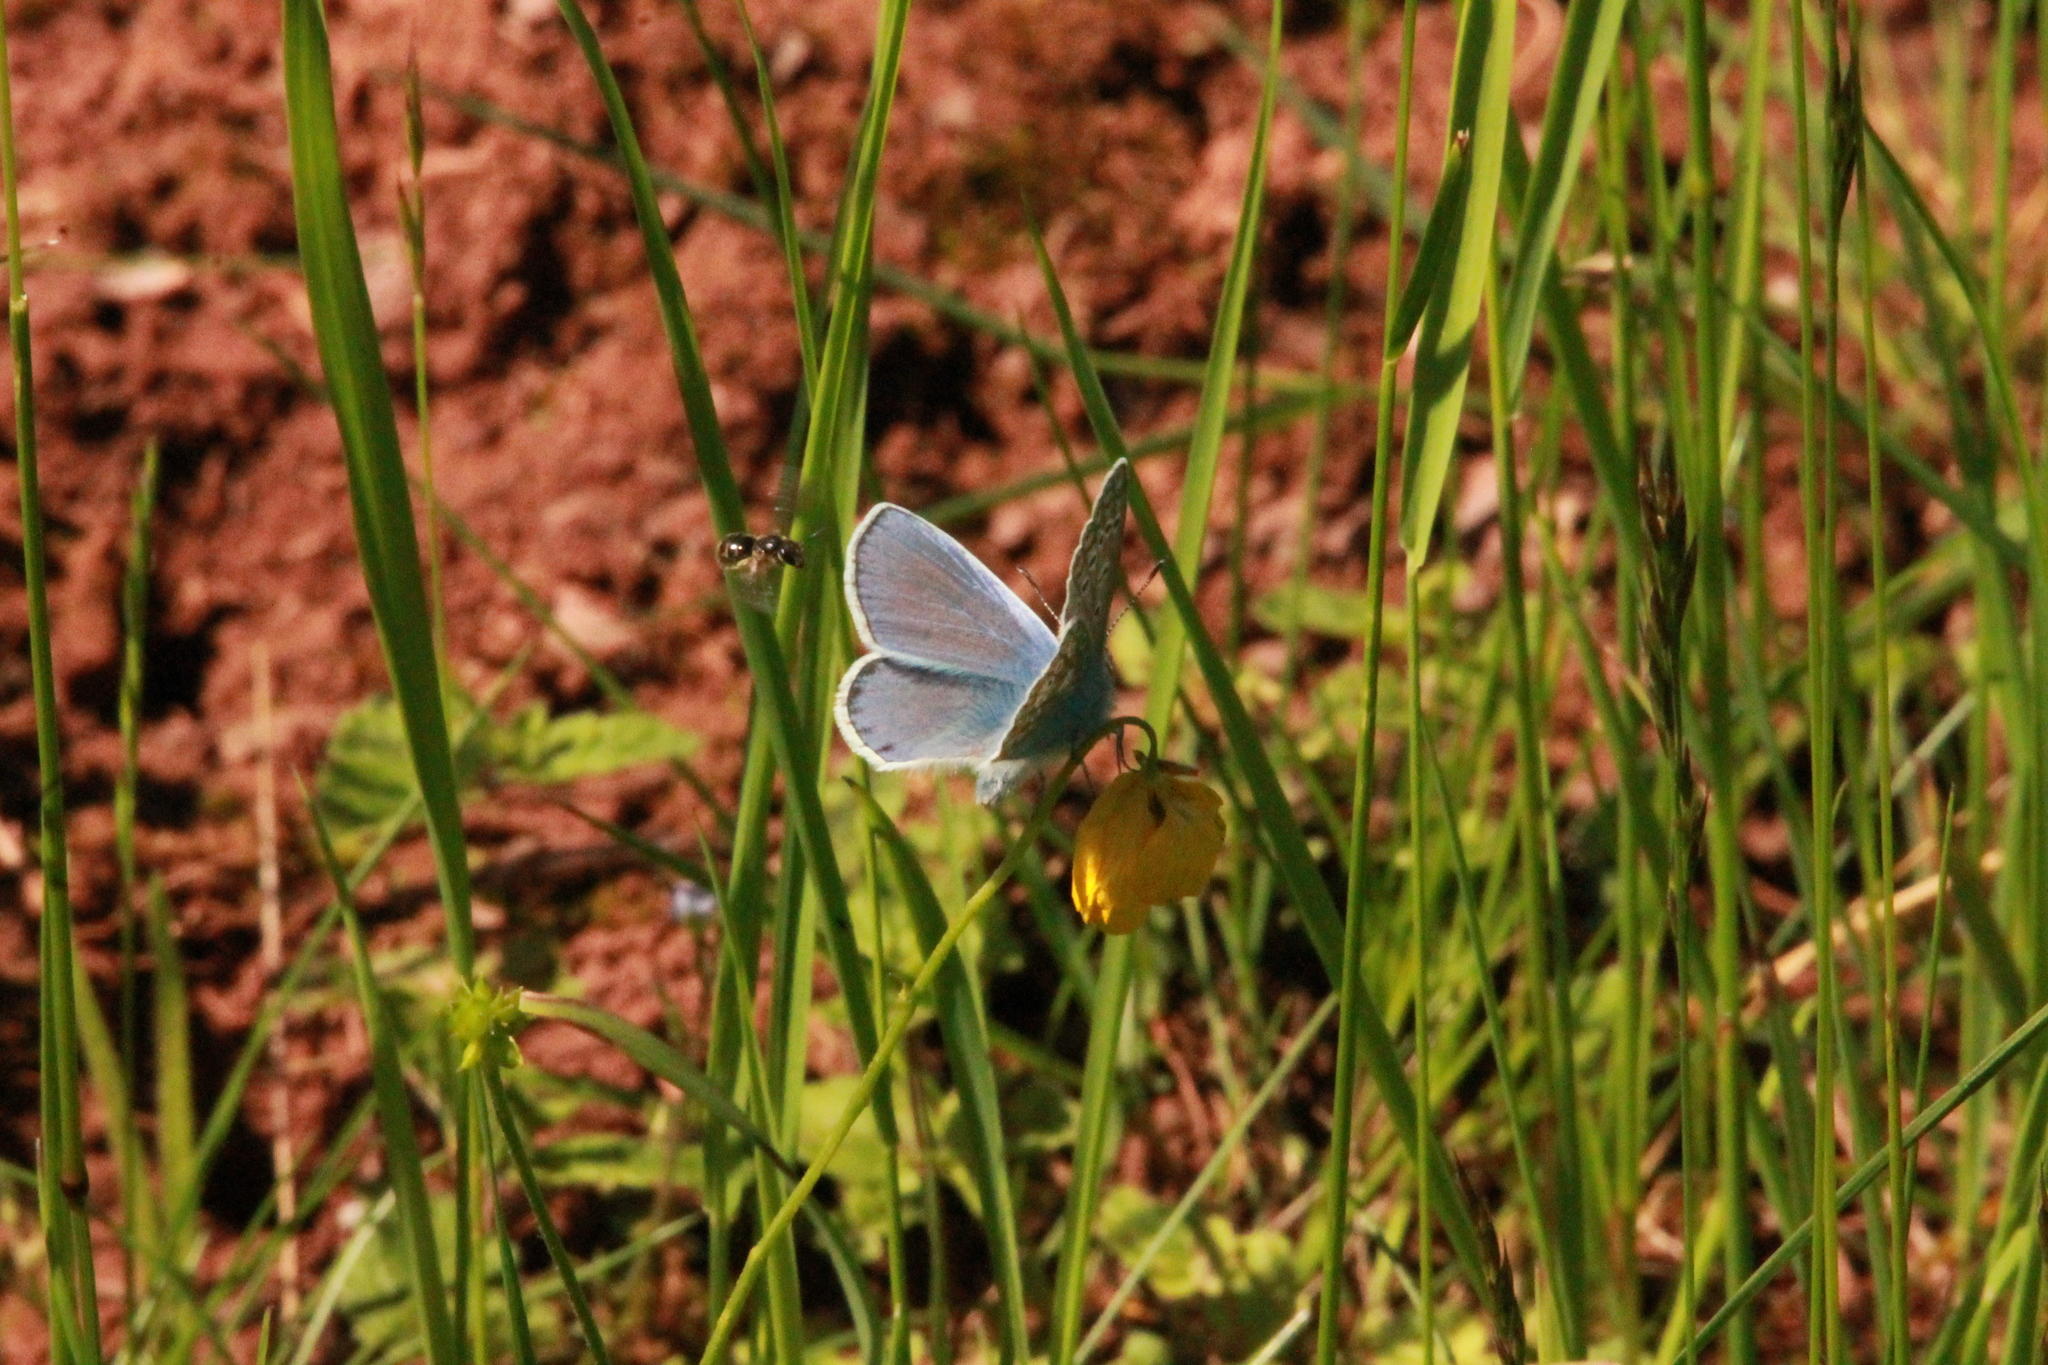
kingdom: Animalia
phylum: Arthropoda
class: Insecta
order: Lepidoptera
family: Lycaenidae
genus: Polyommatus
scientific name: Polyommatus icarus
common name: Common blue
